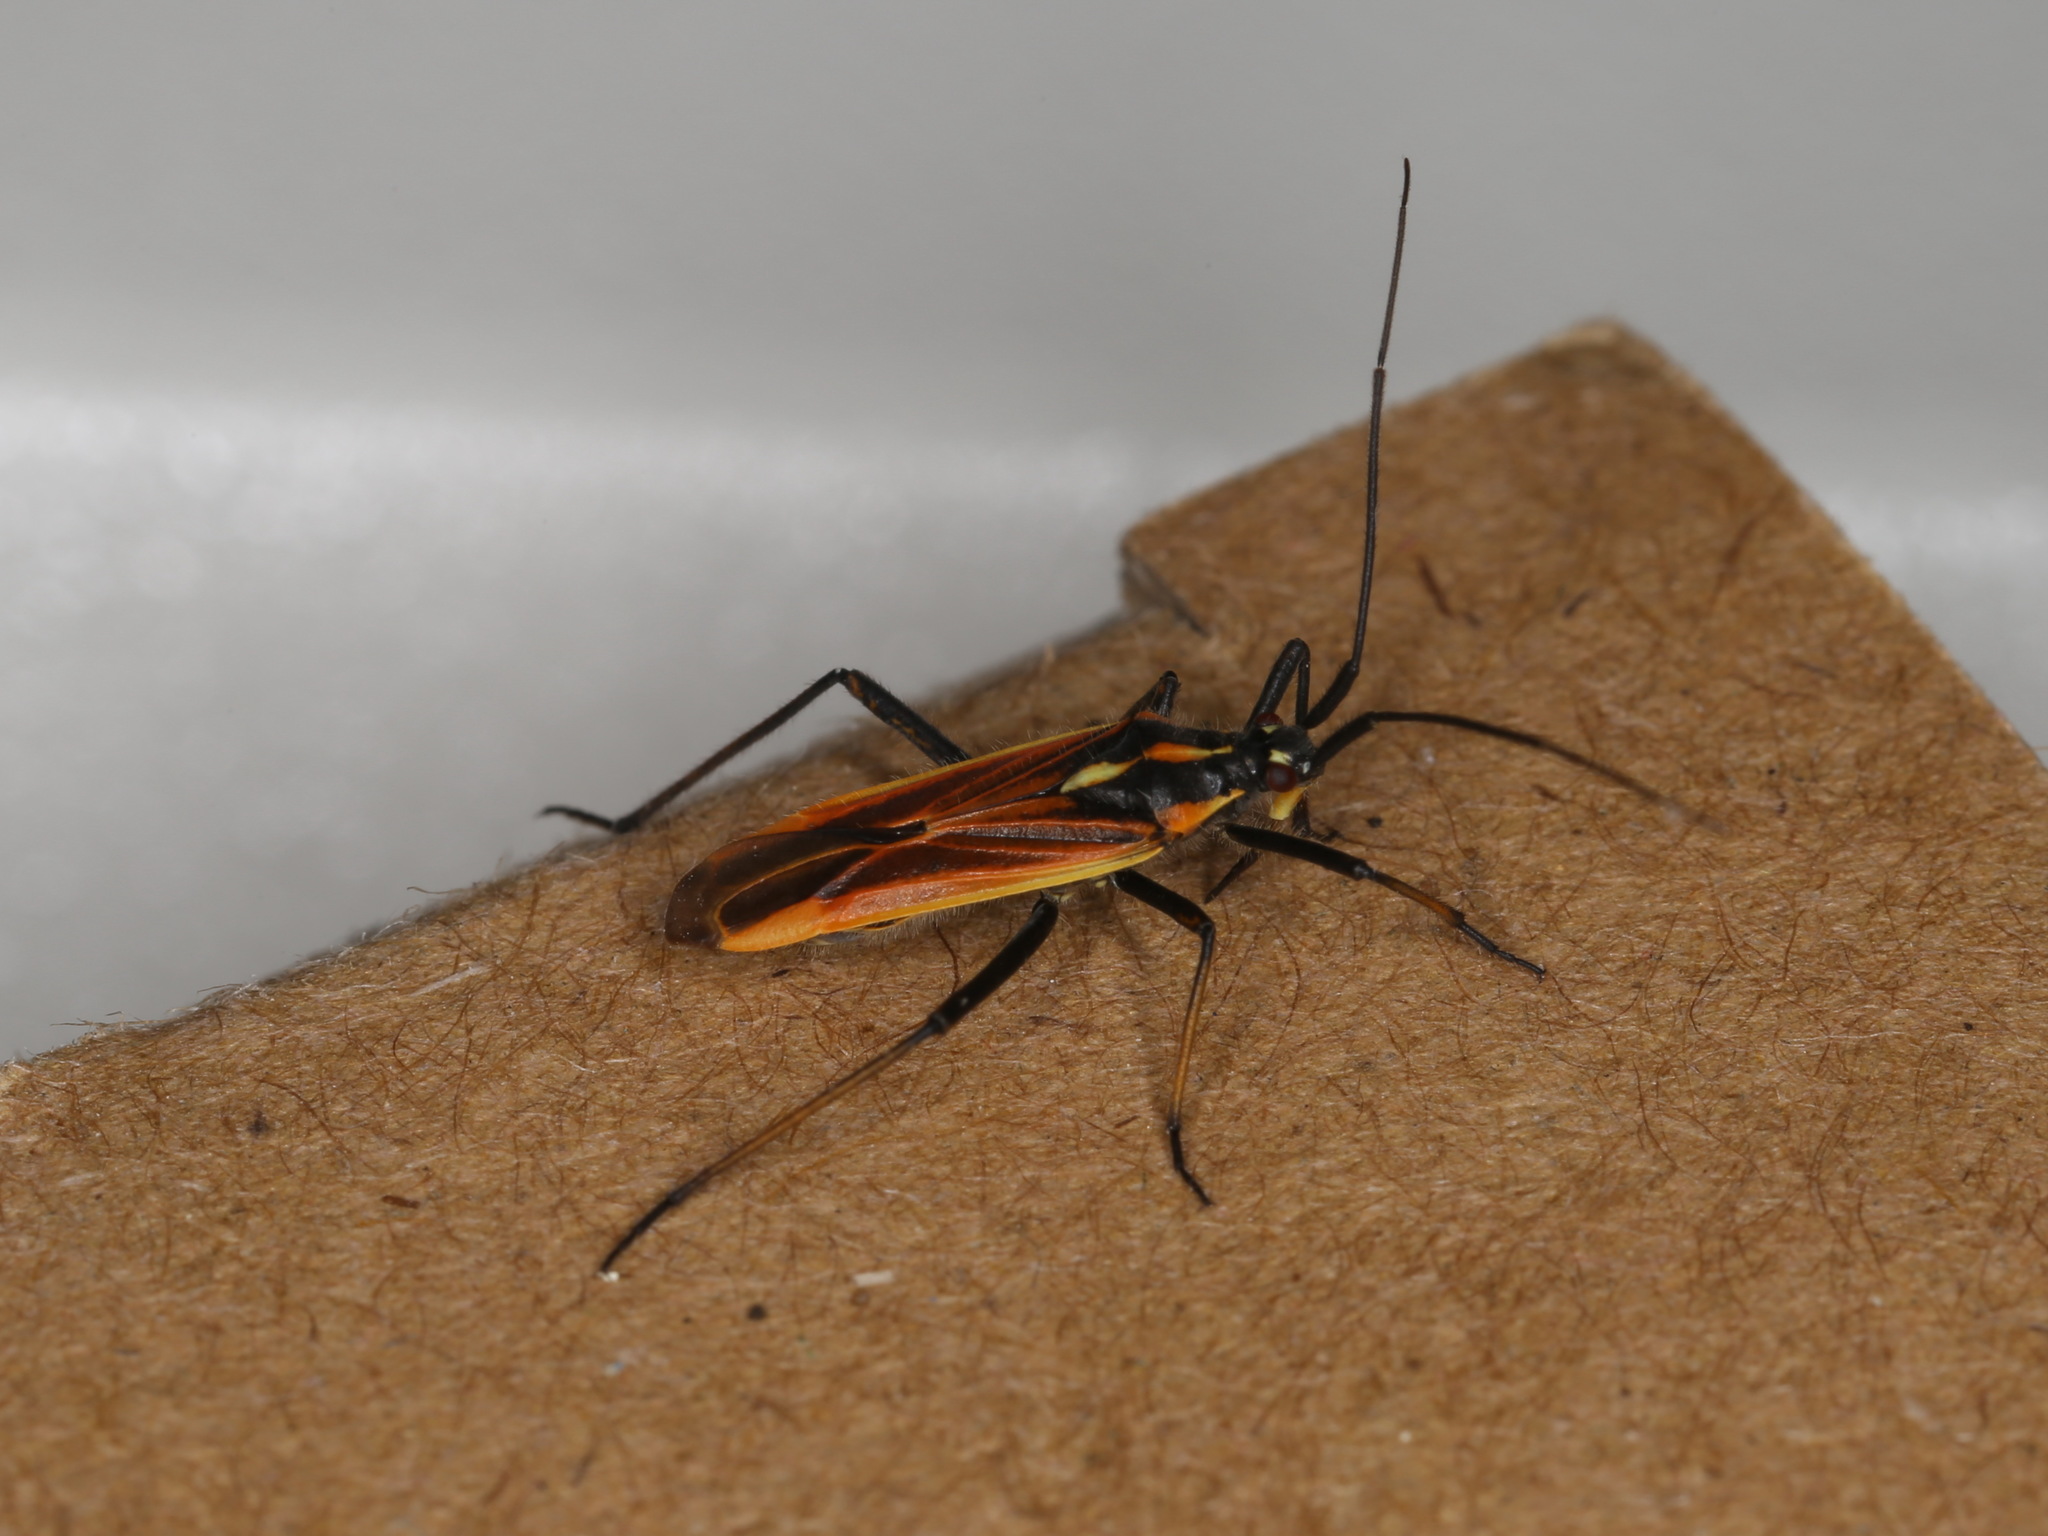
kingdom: Animalia
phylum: Arthropoda
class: Insecta
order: Hemiptera
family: Miridae
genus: Leptopterna
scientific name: Leptopterna dolabrata
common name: Meadow plant bug
